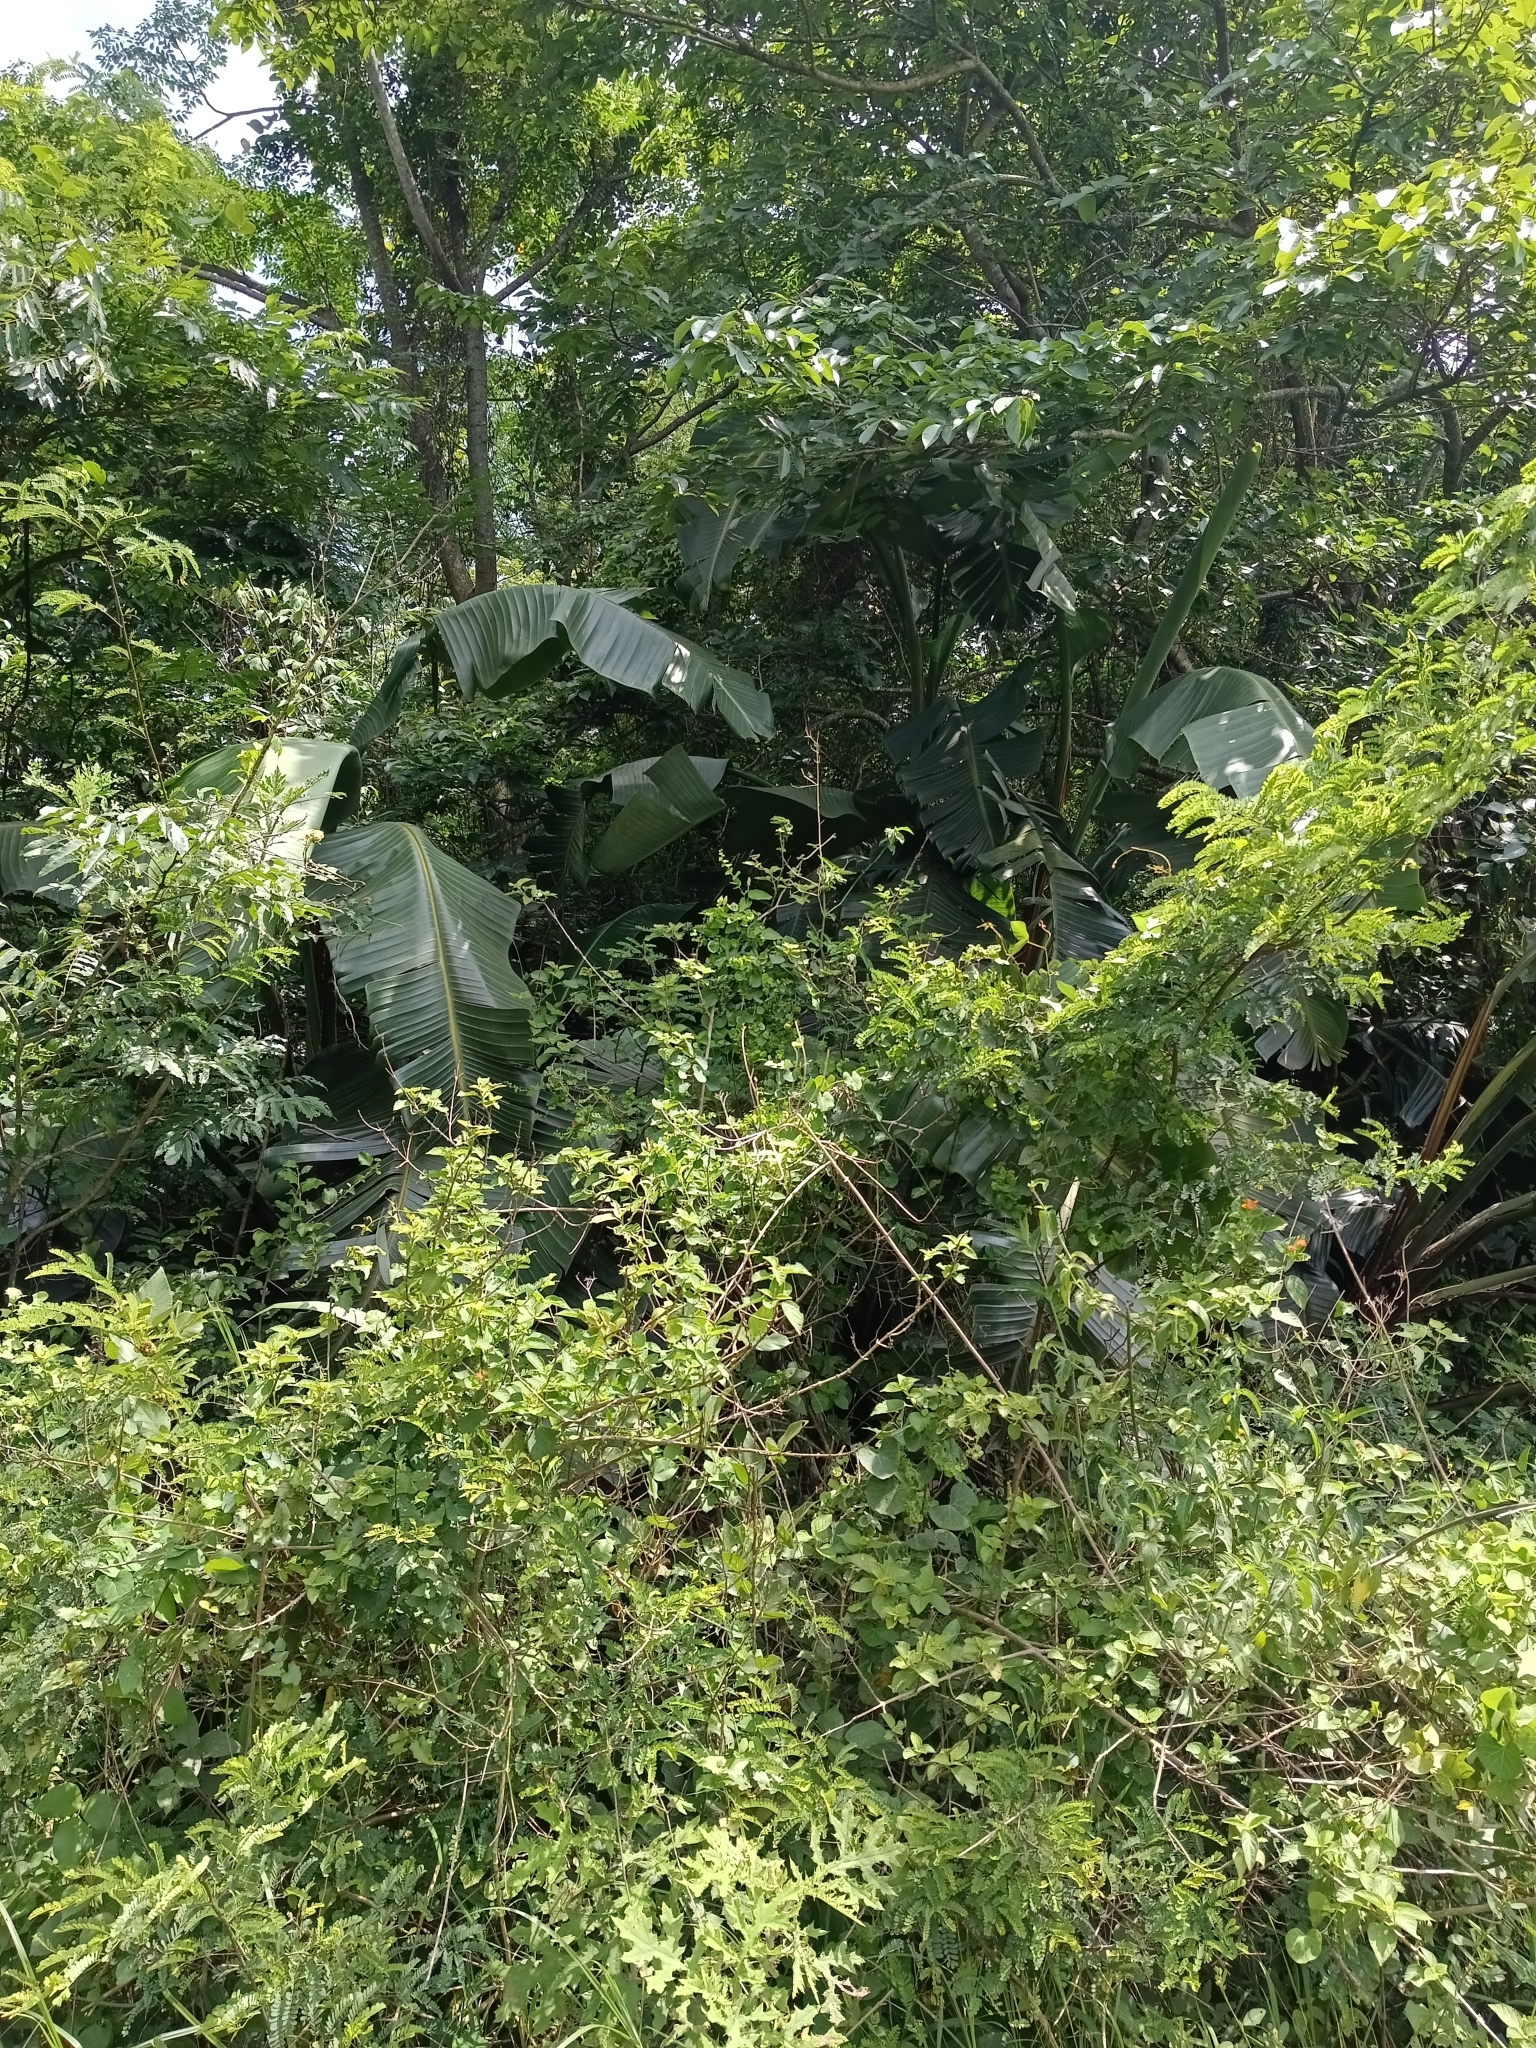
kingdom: Plantae
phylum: Tracheophyta
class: Liliopsida
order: Zingiberales
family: Strelitziaceae
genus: Strelitzia
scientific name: Strelitzia nicolai
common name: Bird-of-paradise tree
